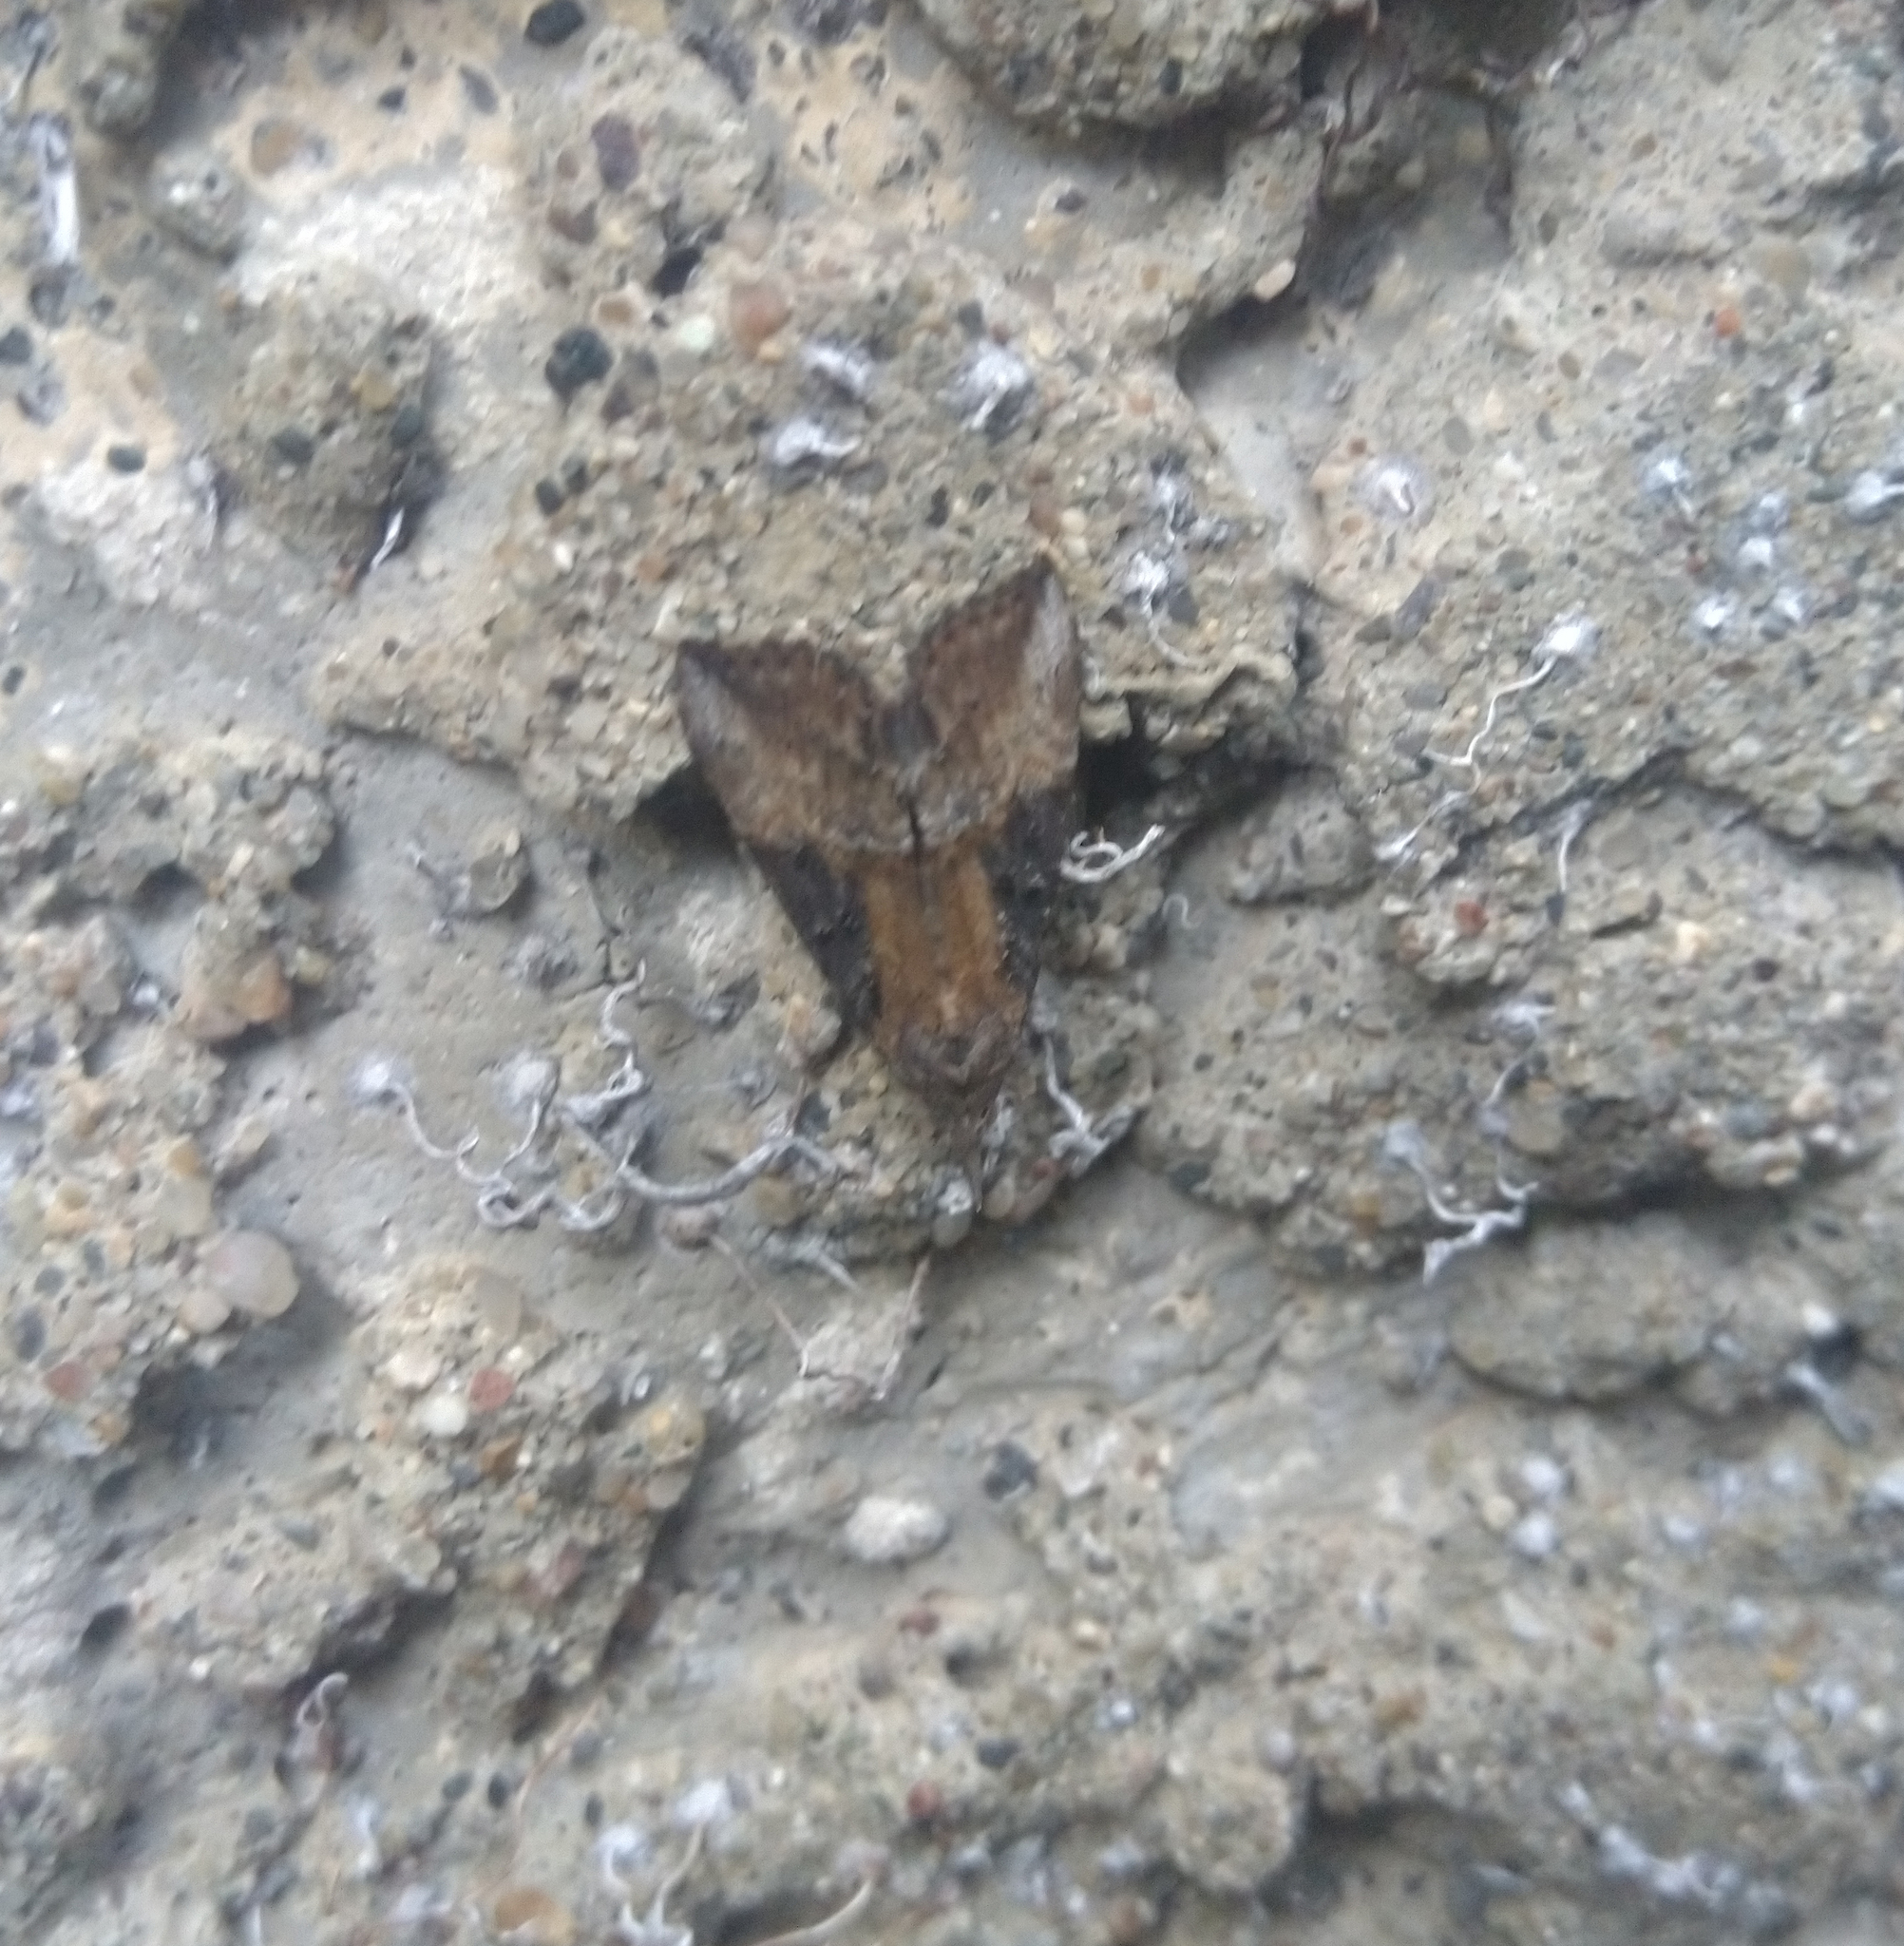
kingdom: Animalia
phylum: Arthropoda
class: Insecta
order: Lepidoptera
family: Erebidae
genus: Hypena
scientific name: Hypena scabra
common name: Green cloverworm
